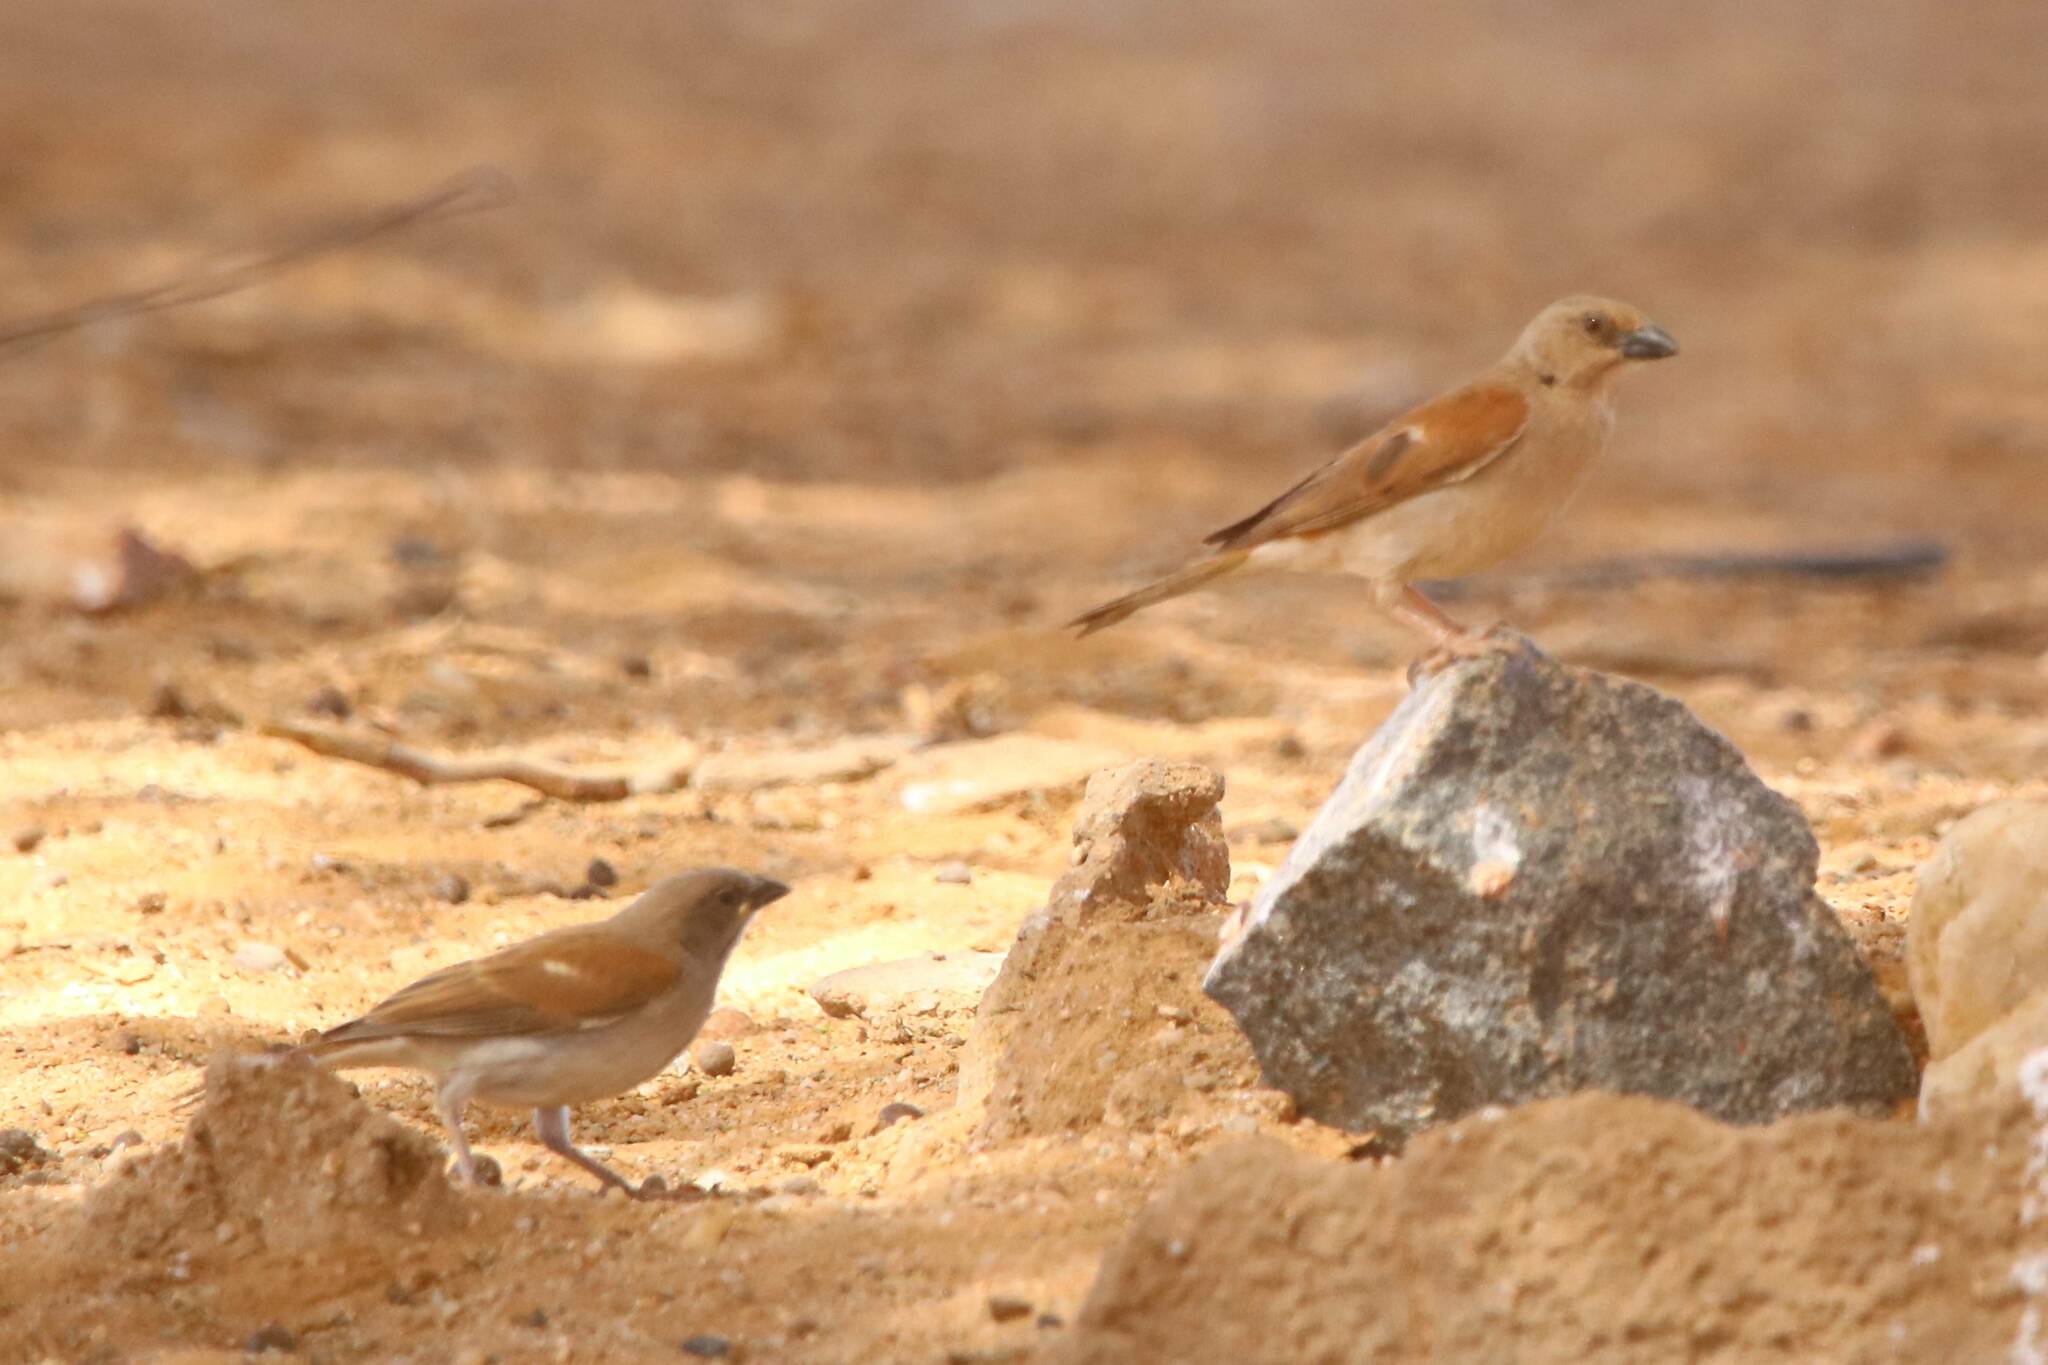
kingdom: Animalia
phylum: Chordata
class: Aves
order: Passeriformes
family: Passeridae
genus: Passer
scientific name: Passer griseus
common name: Northern grey-headed sparrow
